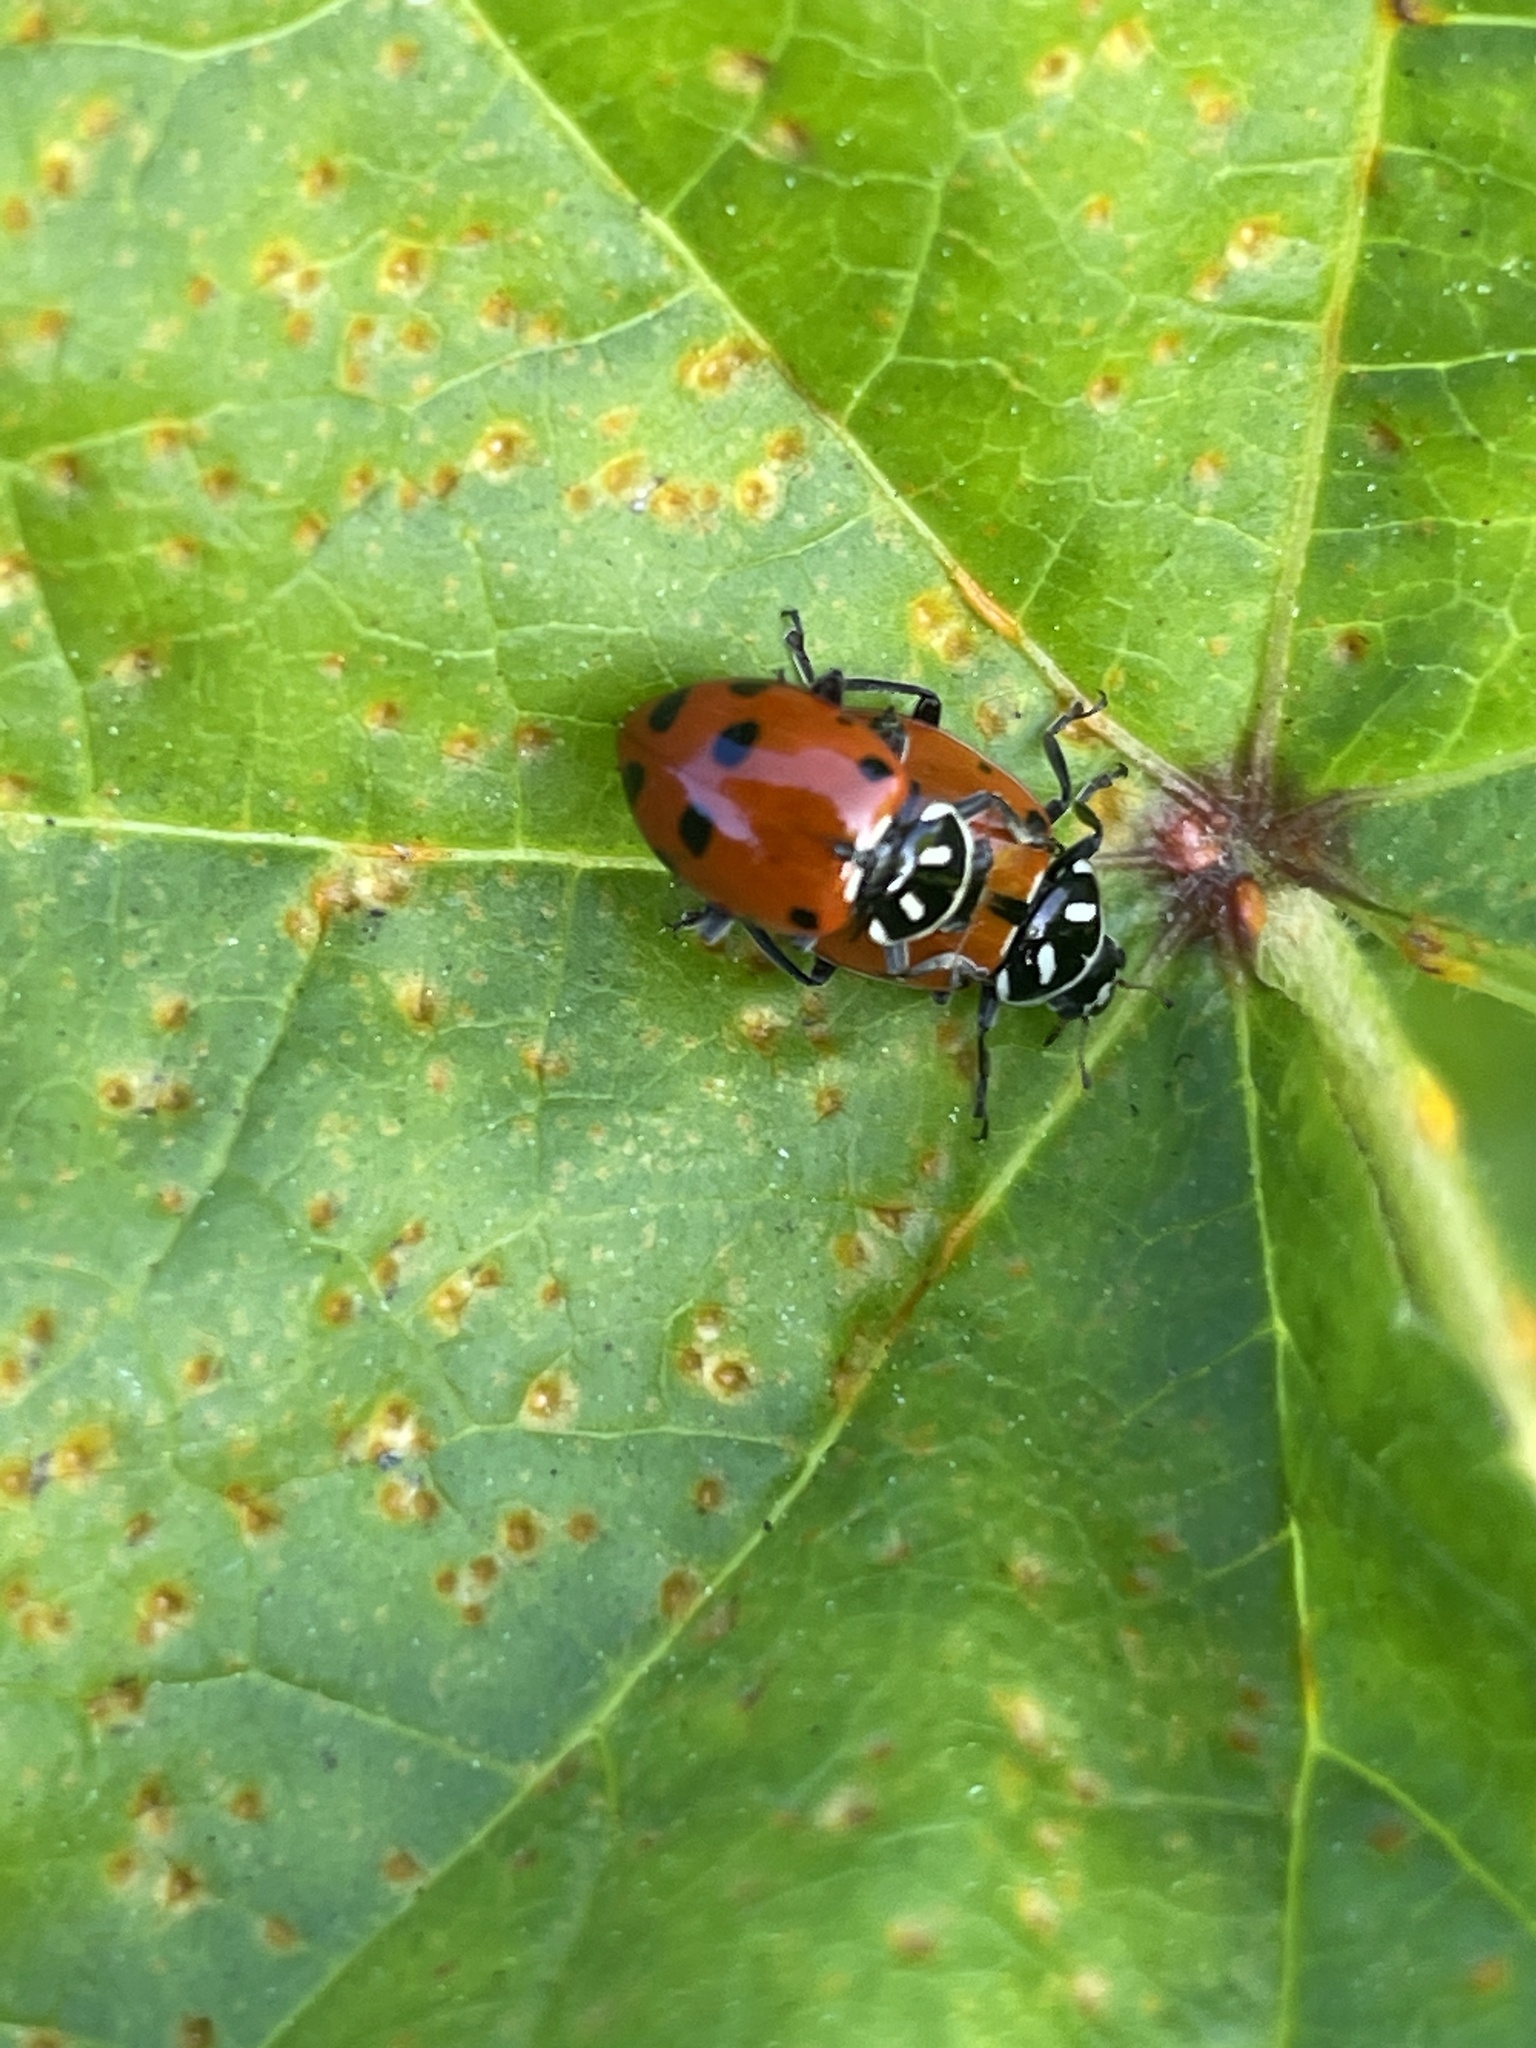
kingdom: Animalia
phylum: Arthropoda
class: Insecta
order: Coleoptera
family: Coccinellidae
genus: Hippodamia
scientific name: Hippodamia convergens
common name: Convergent lady beetle
